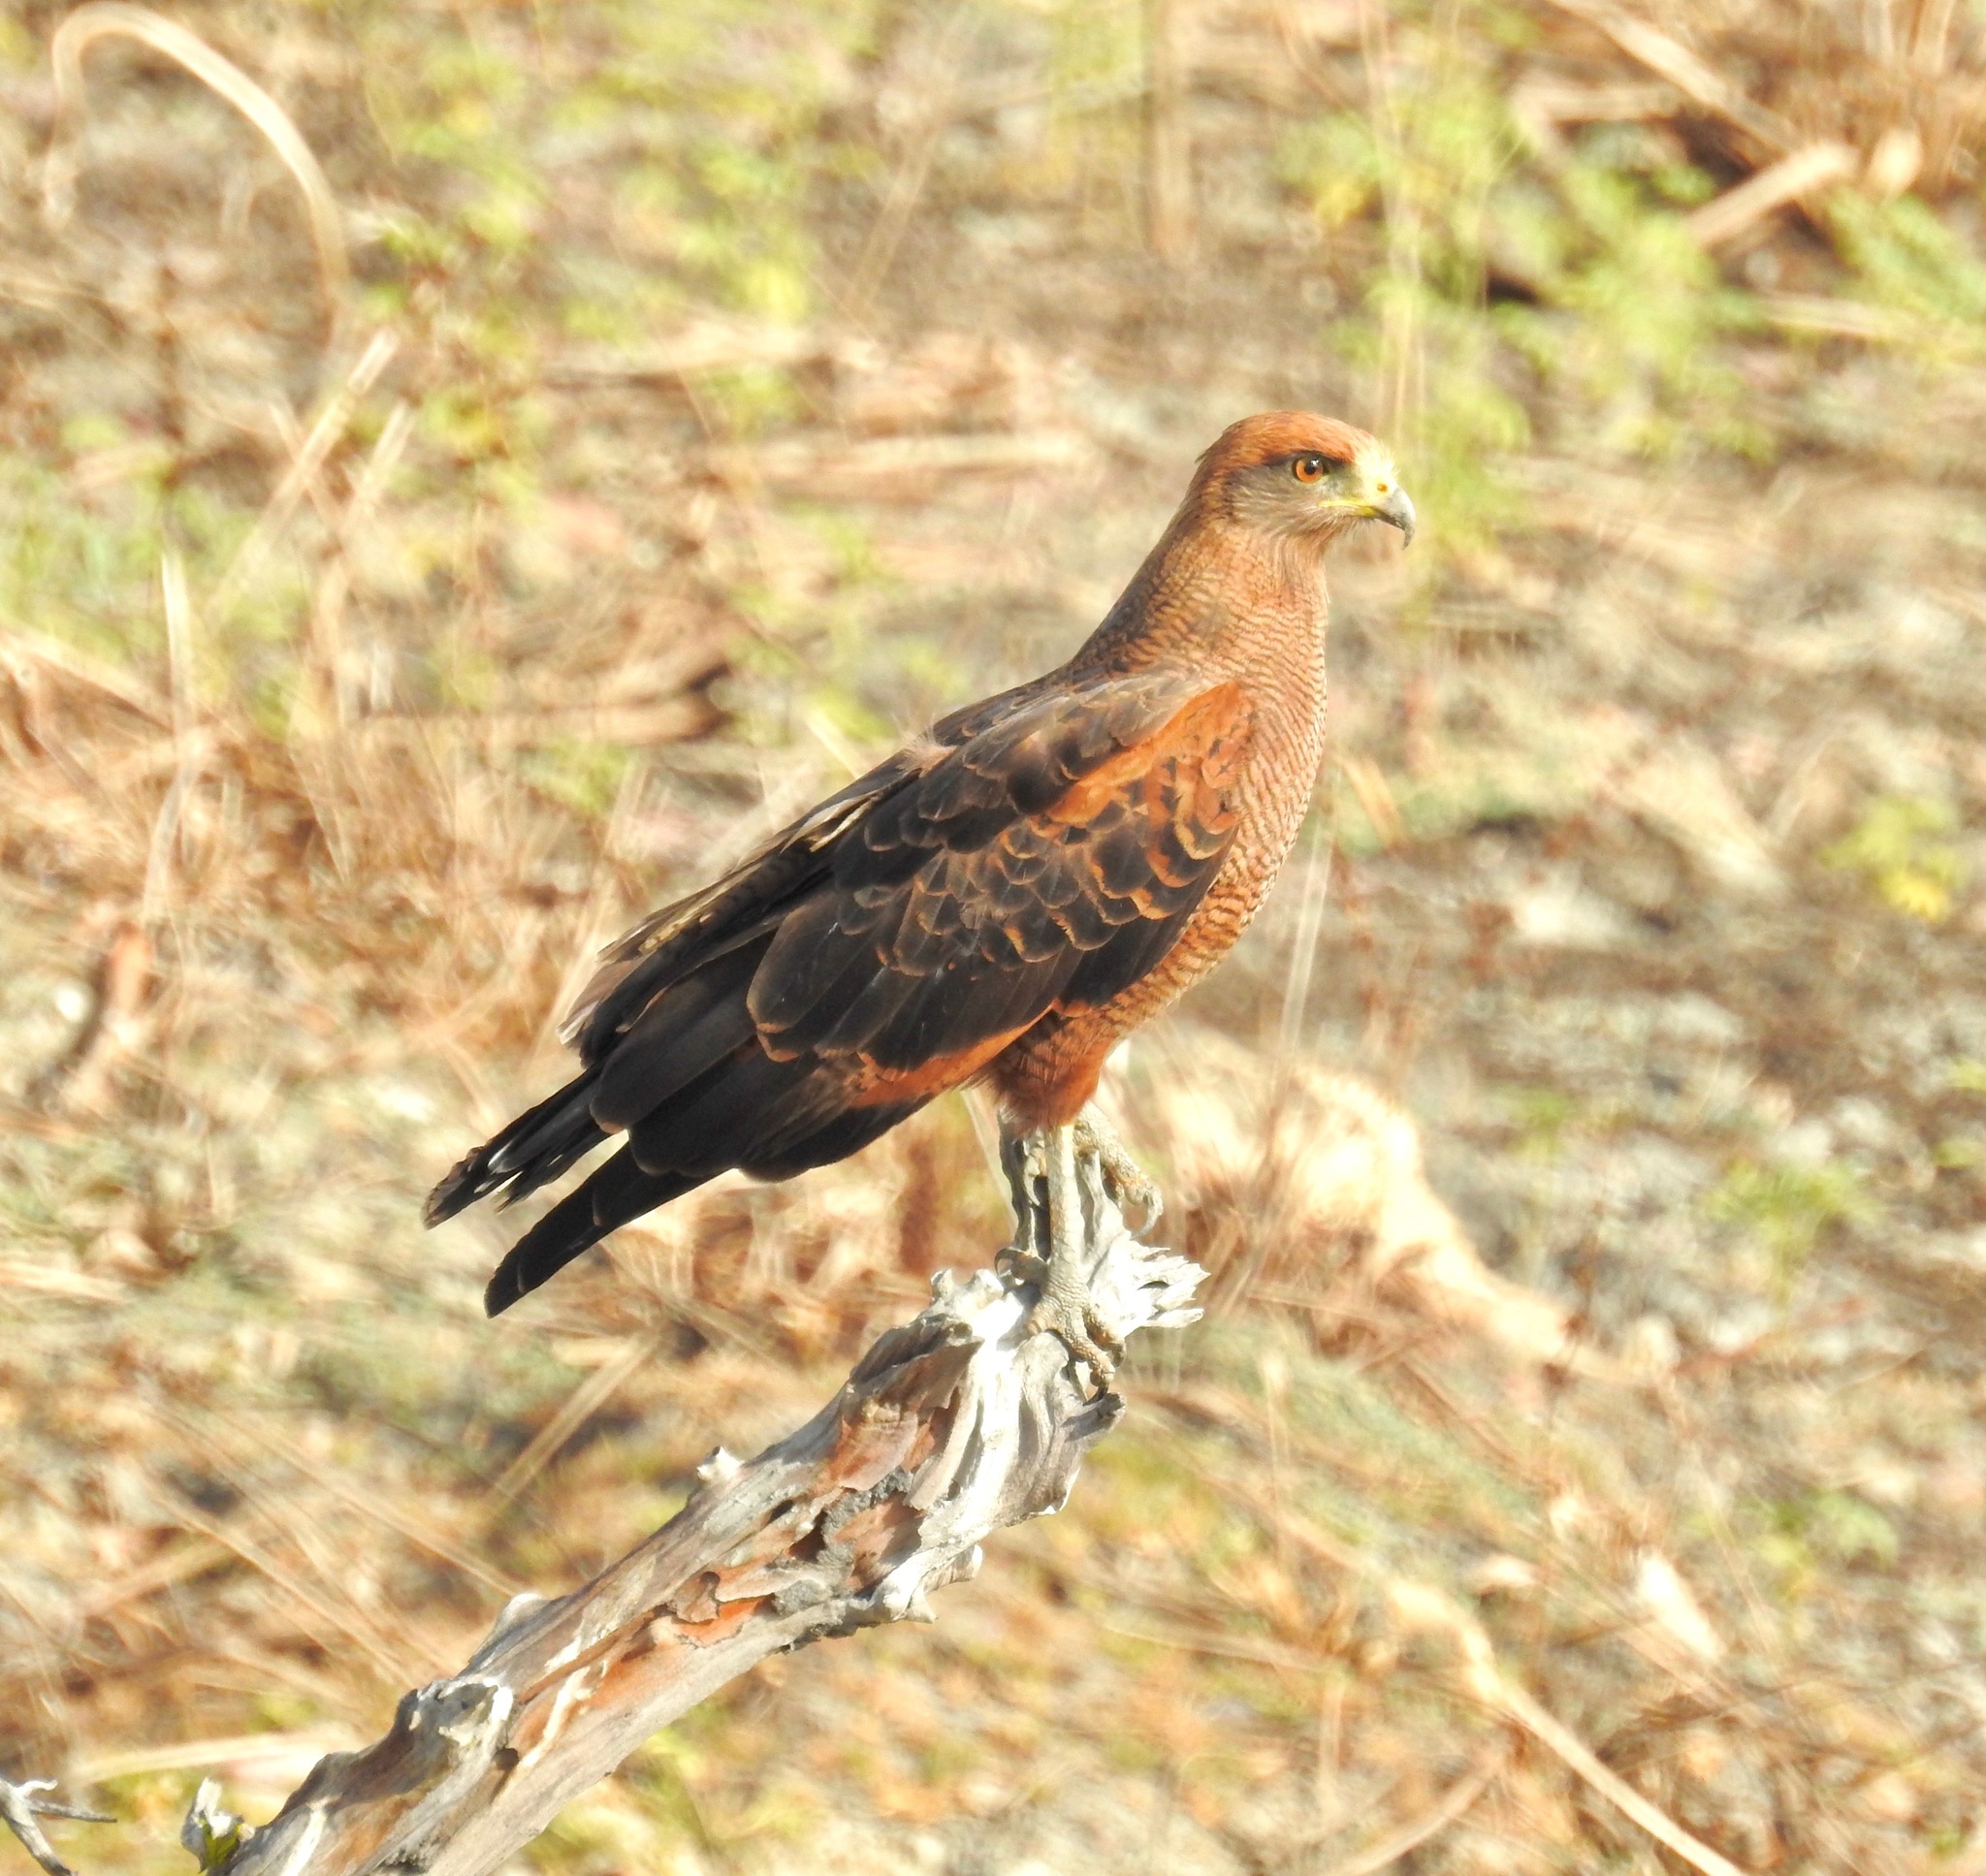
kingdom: Animalia
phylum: Chordata
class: Aves
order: Accipitriformes
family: Accipitridae
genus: Buteogallus
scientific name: Buteogallus meridionalis
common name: Savanna hawk
